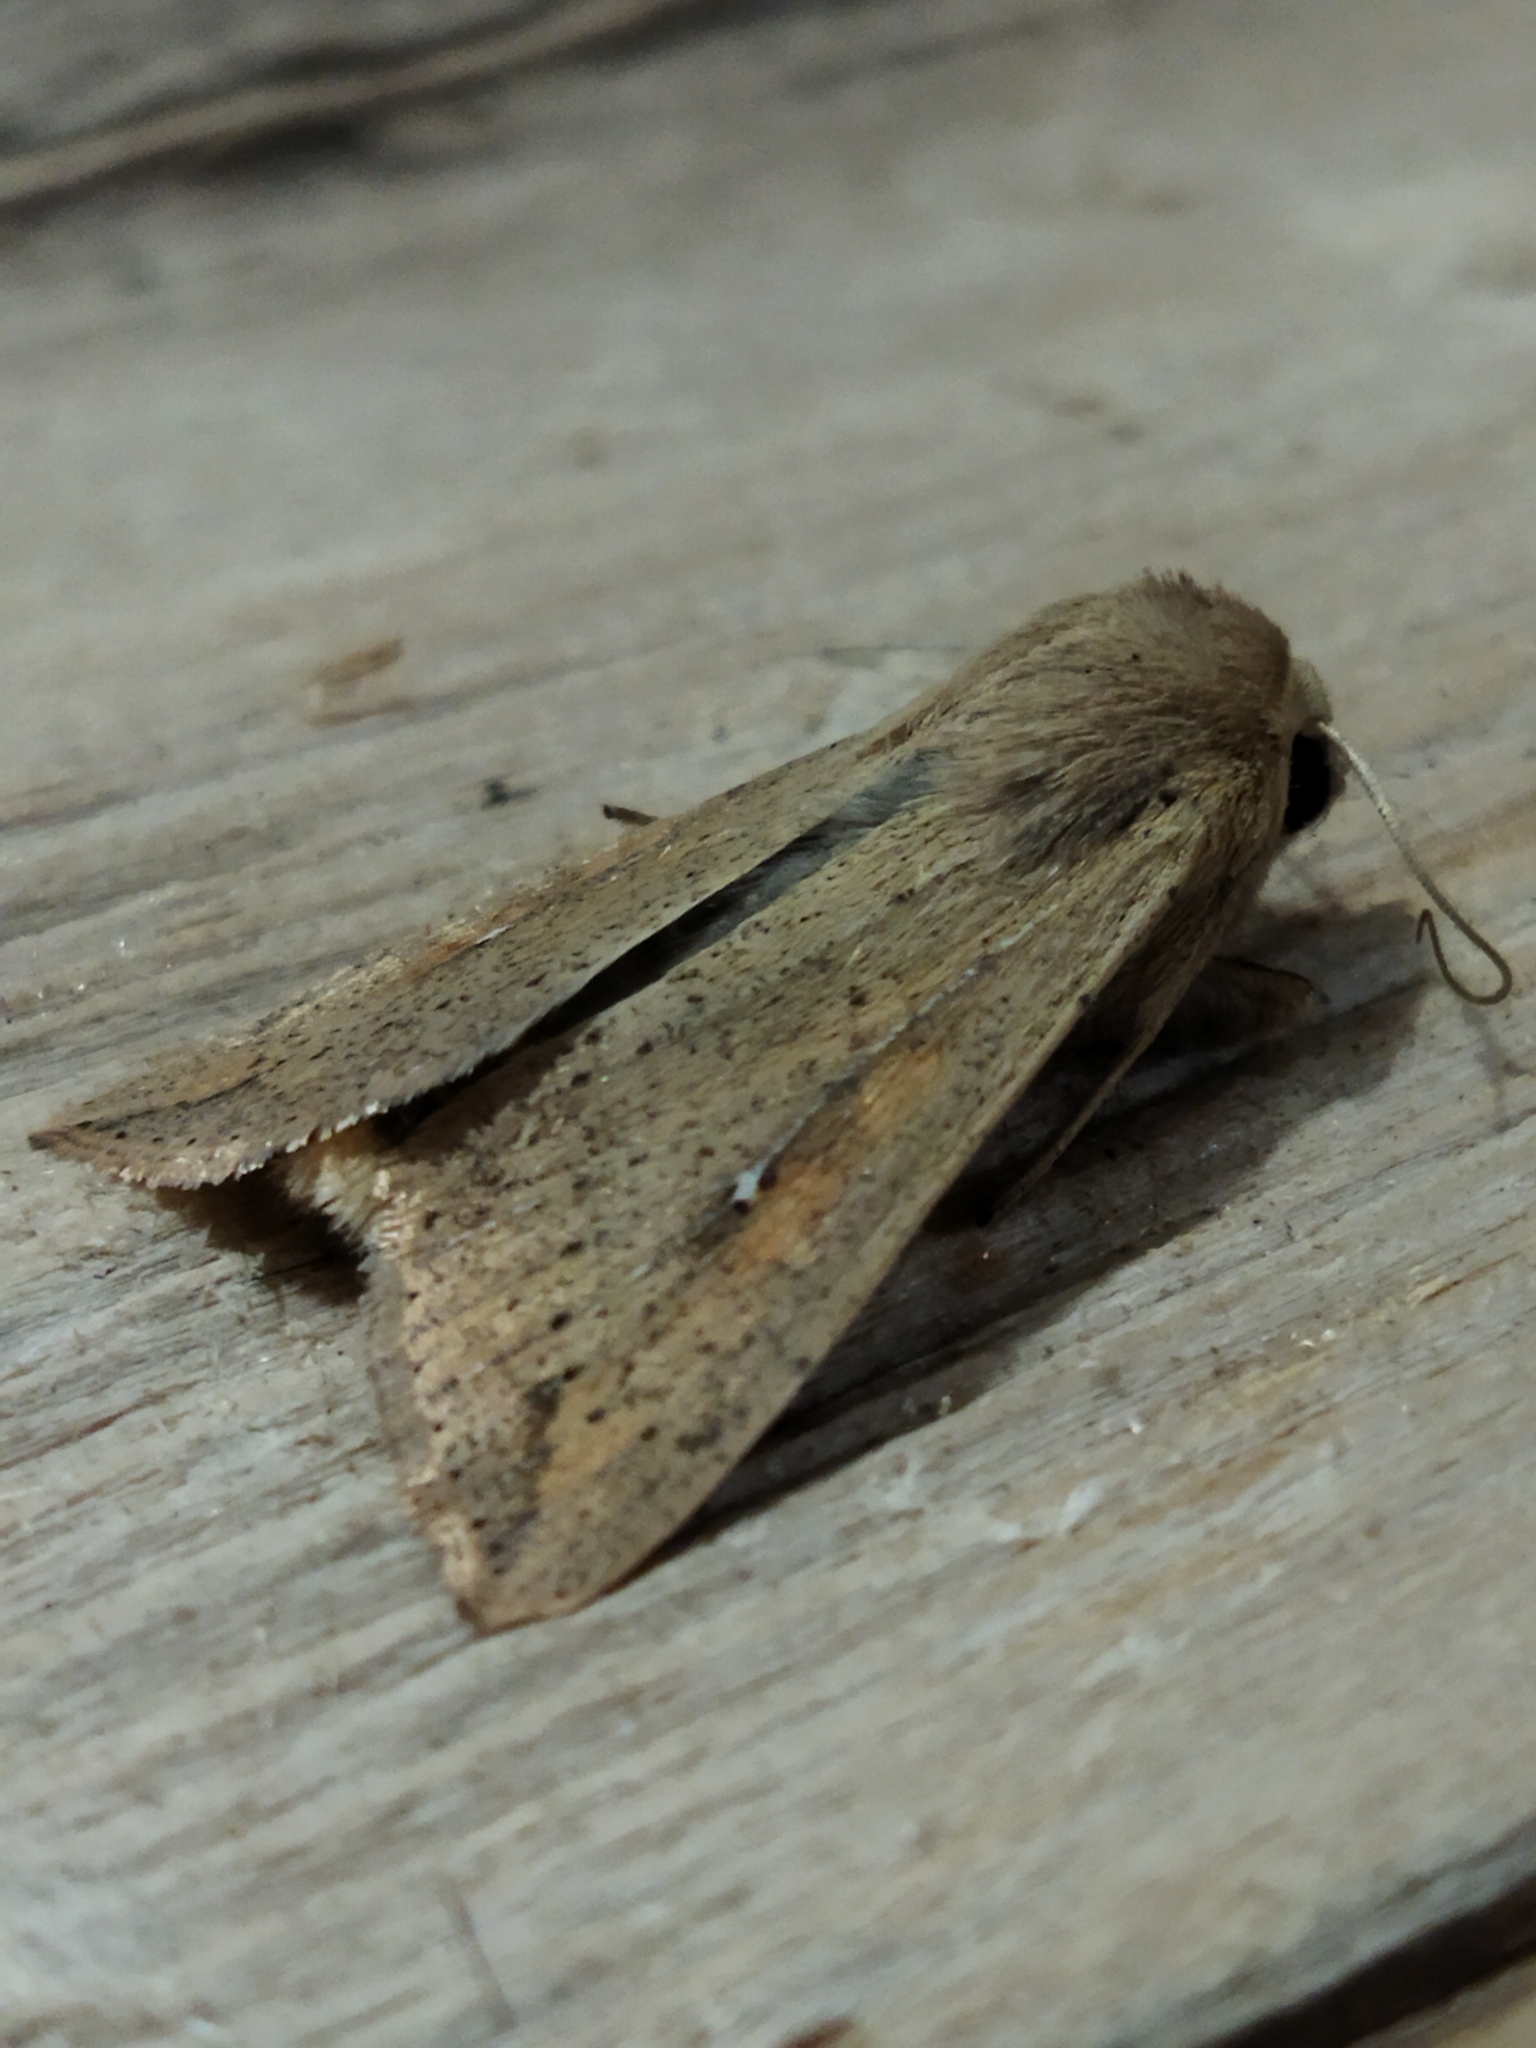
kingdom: Animalia
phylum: Arthropoda
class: Insecta
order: Lepidoptera
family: Noctuidae
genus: Mythimna
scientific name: Mythimna unipuncta
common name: White-speck
